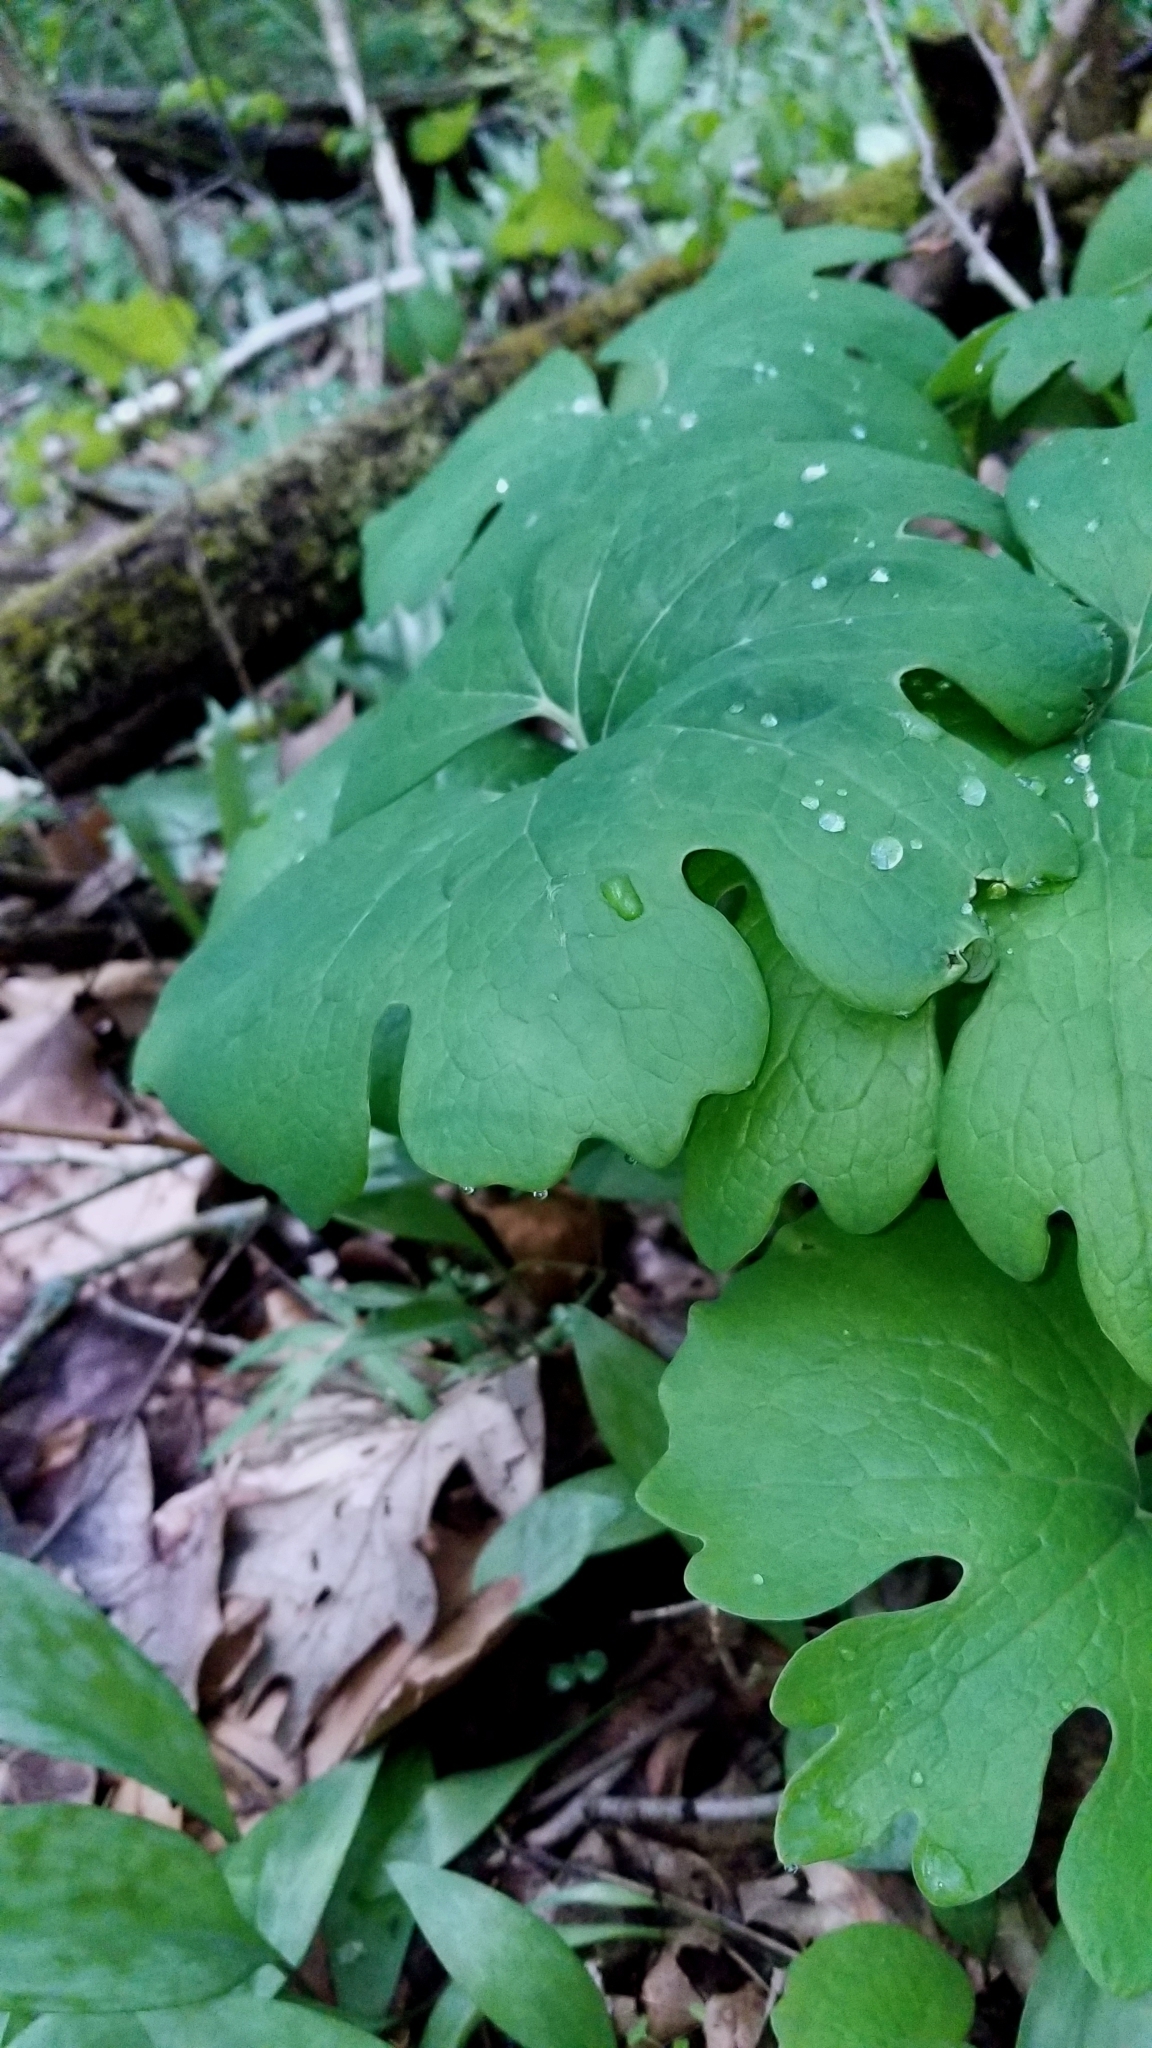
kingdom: Plantae
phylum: Tracheophyta
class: Magnoliopsida
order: Ranunculales
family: Berberidaceae
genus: Podophyllum
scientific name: Podophyllum peltatum
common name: Wild mandrake
